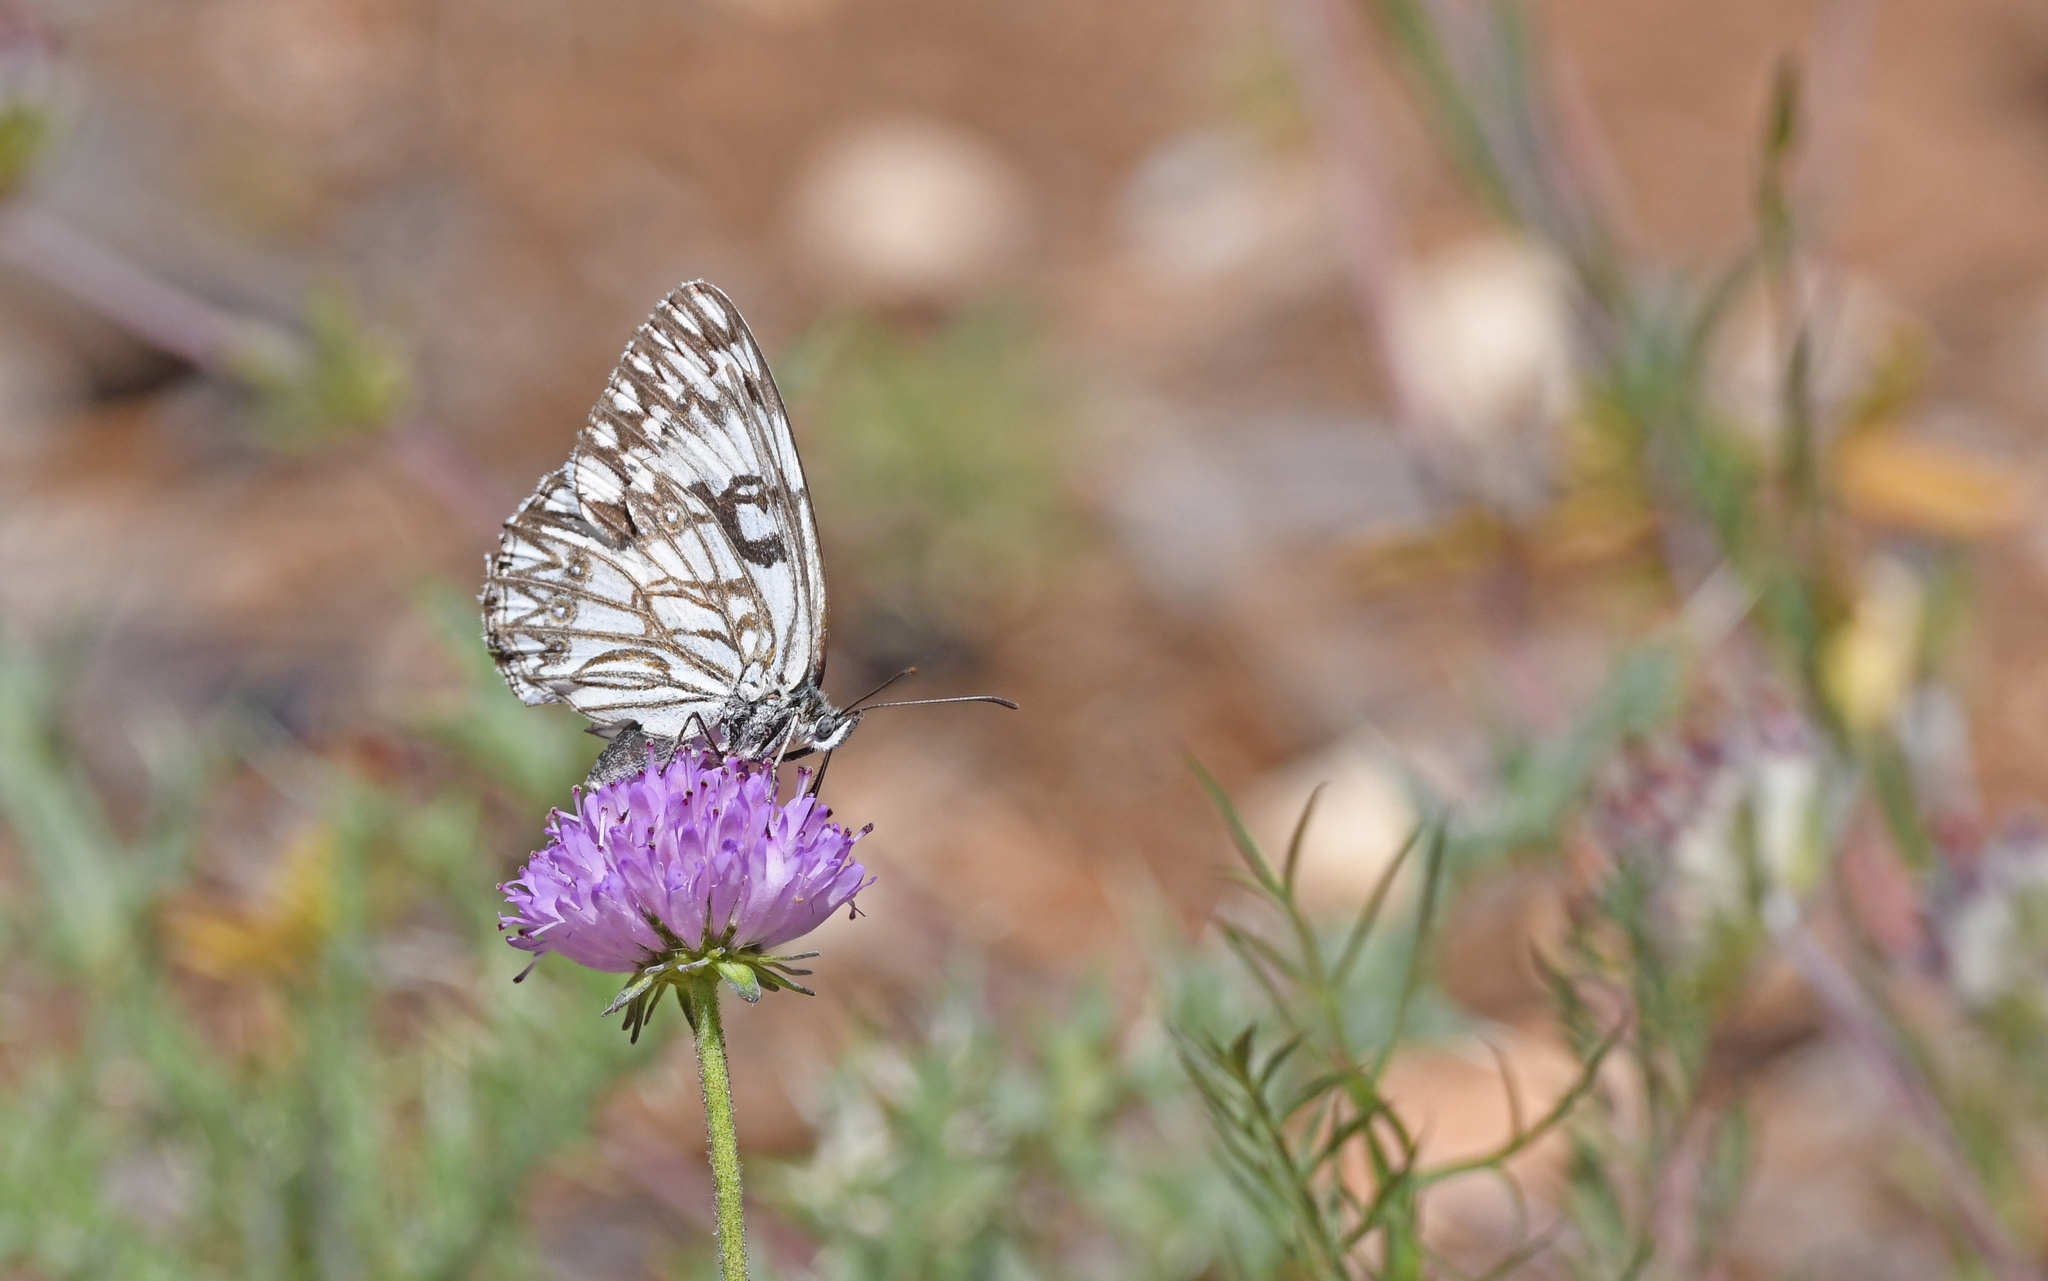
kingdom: Animalia
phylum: Arthropoda
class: Insecta
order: Lepidoptera
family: Nymphalidae
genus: Melanargia
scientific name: Melanargia occitanica
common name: Western marbled white
